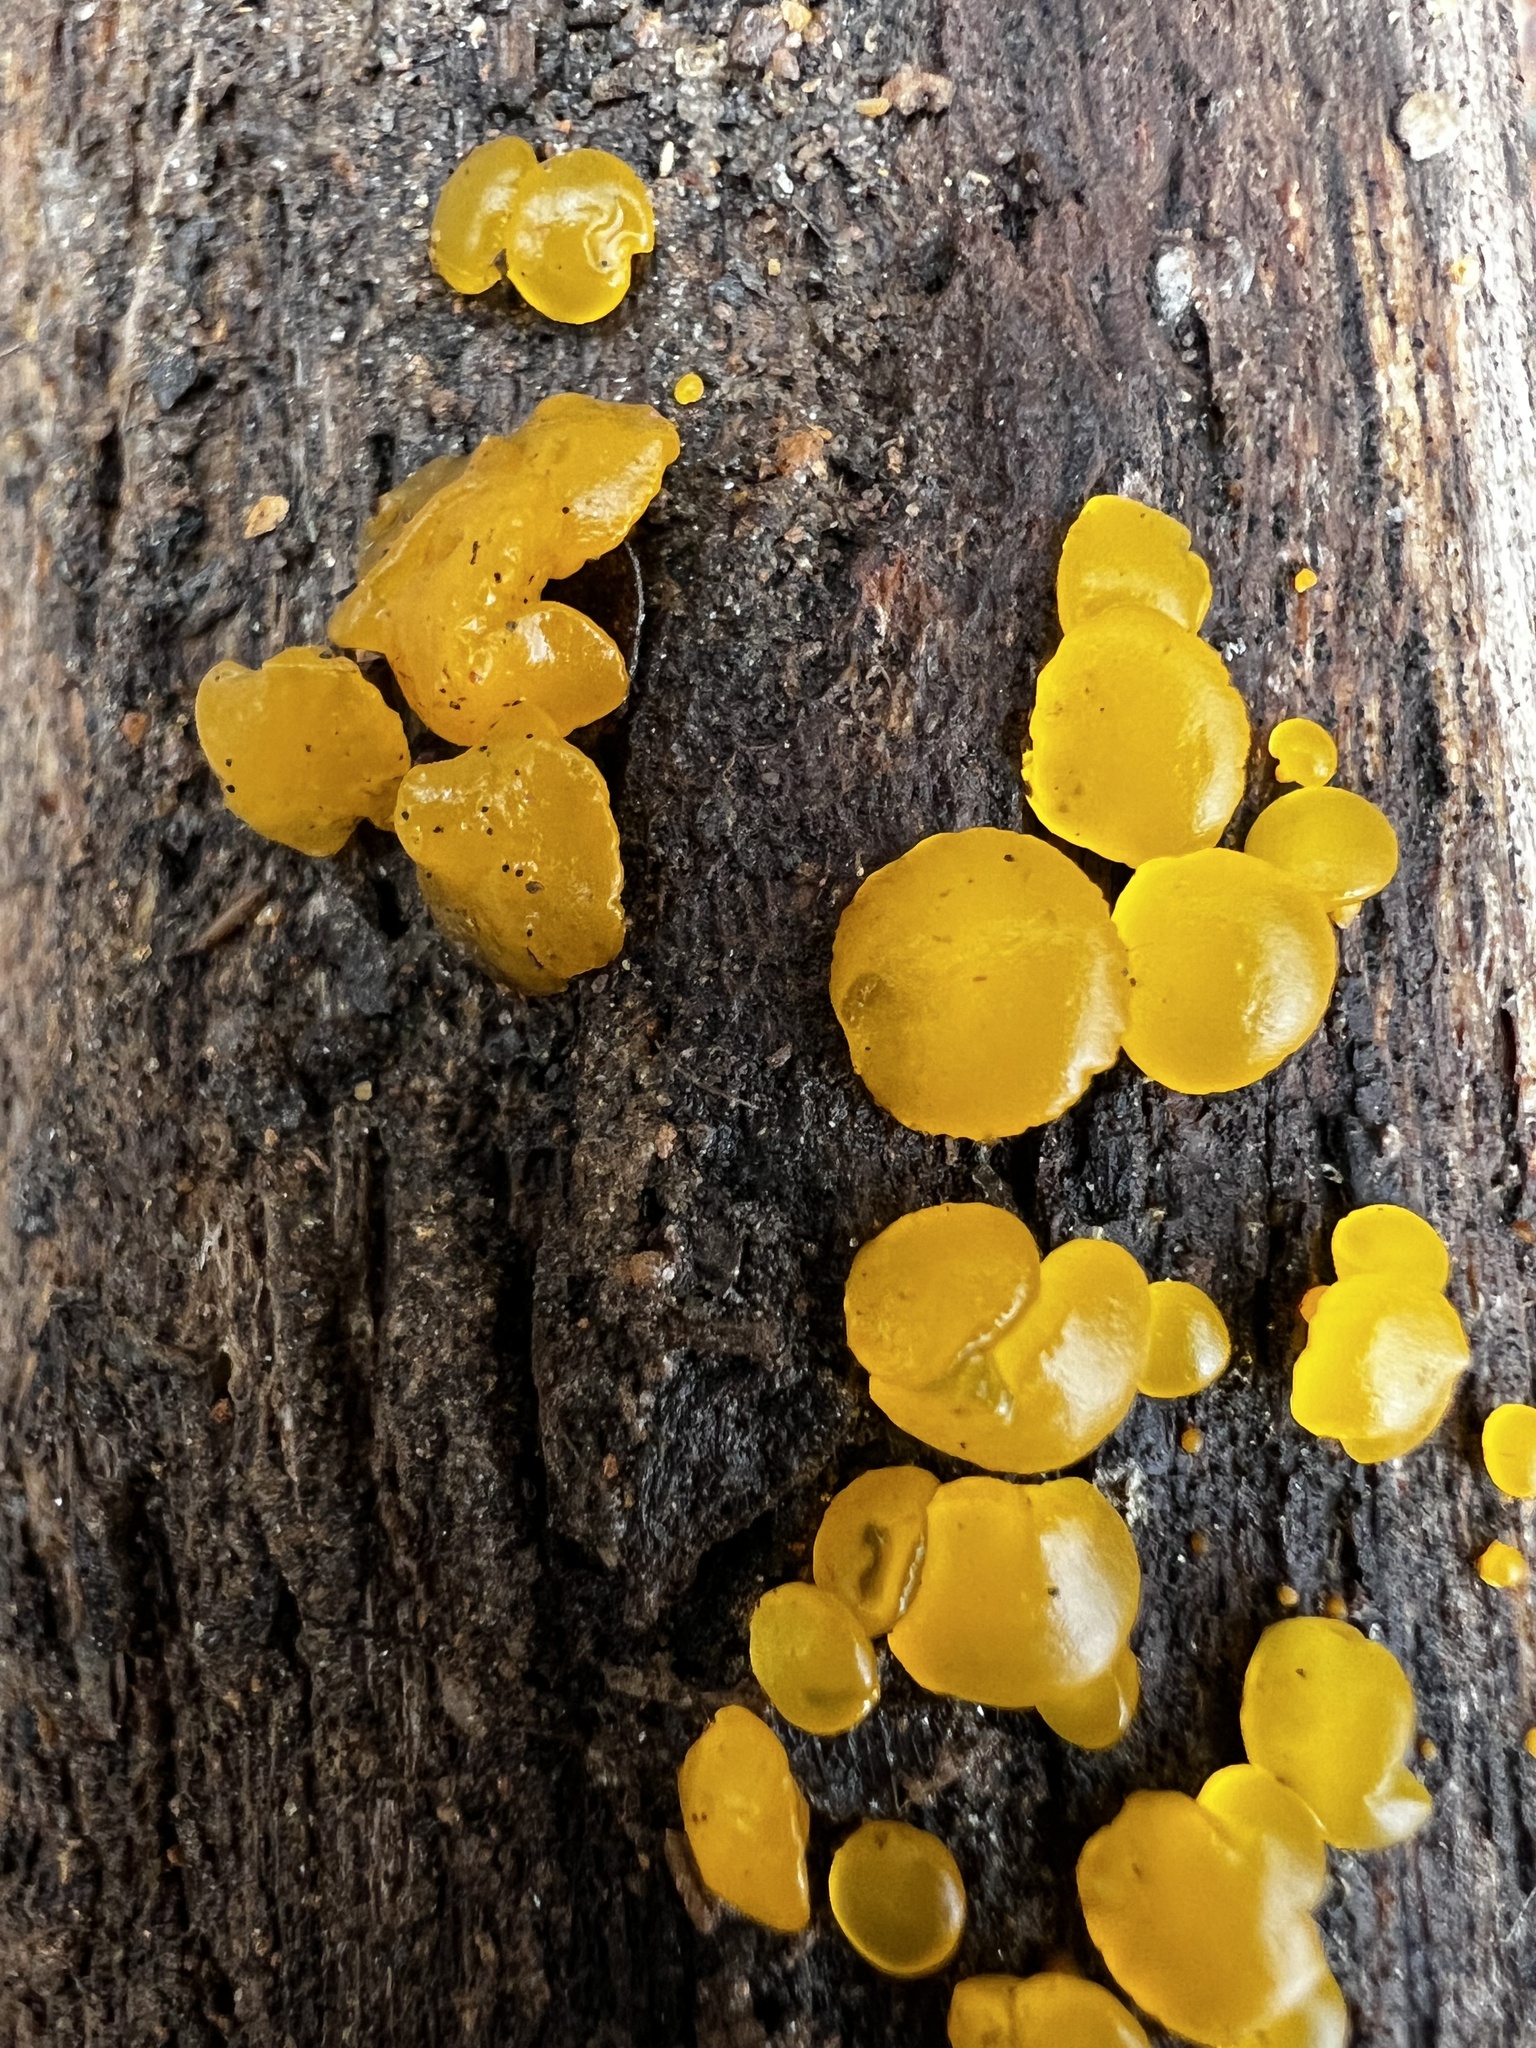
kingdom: Fungi
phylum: Basidiomycota
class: Dacrymycetes
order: Dacrymycetales
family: Dacrymycetaceae
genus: Dacrymyces
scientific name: Dacrymyces stillatus
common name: Common jelly spot
